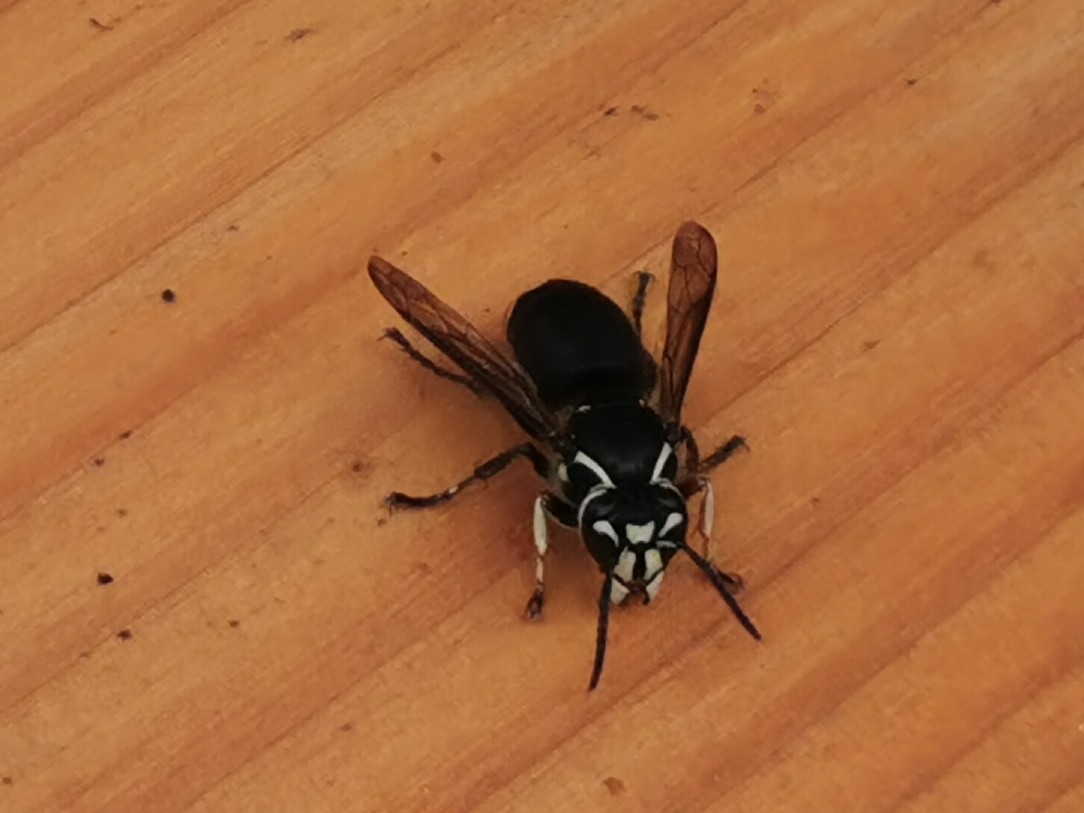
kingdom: Animalia
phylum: Arthropoda
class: Insecta
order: Hymenoptera
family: Vespidae
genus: Dolichovespula
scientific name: Dolichovespula maculata
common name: Bald-faced hornet
